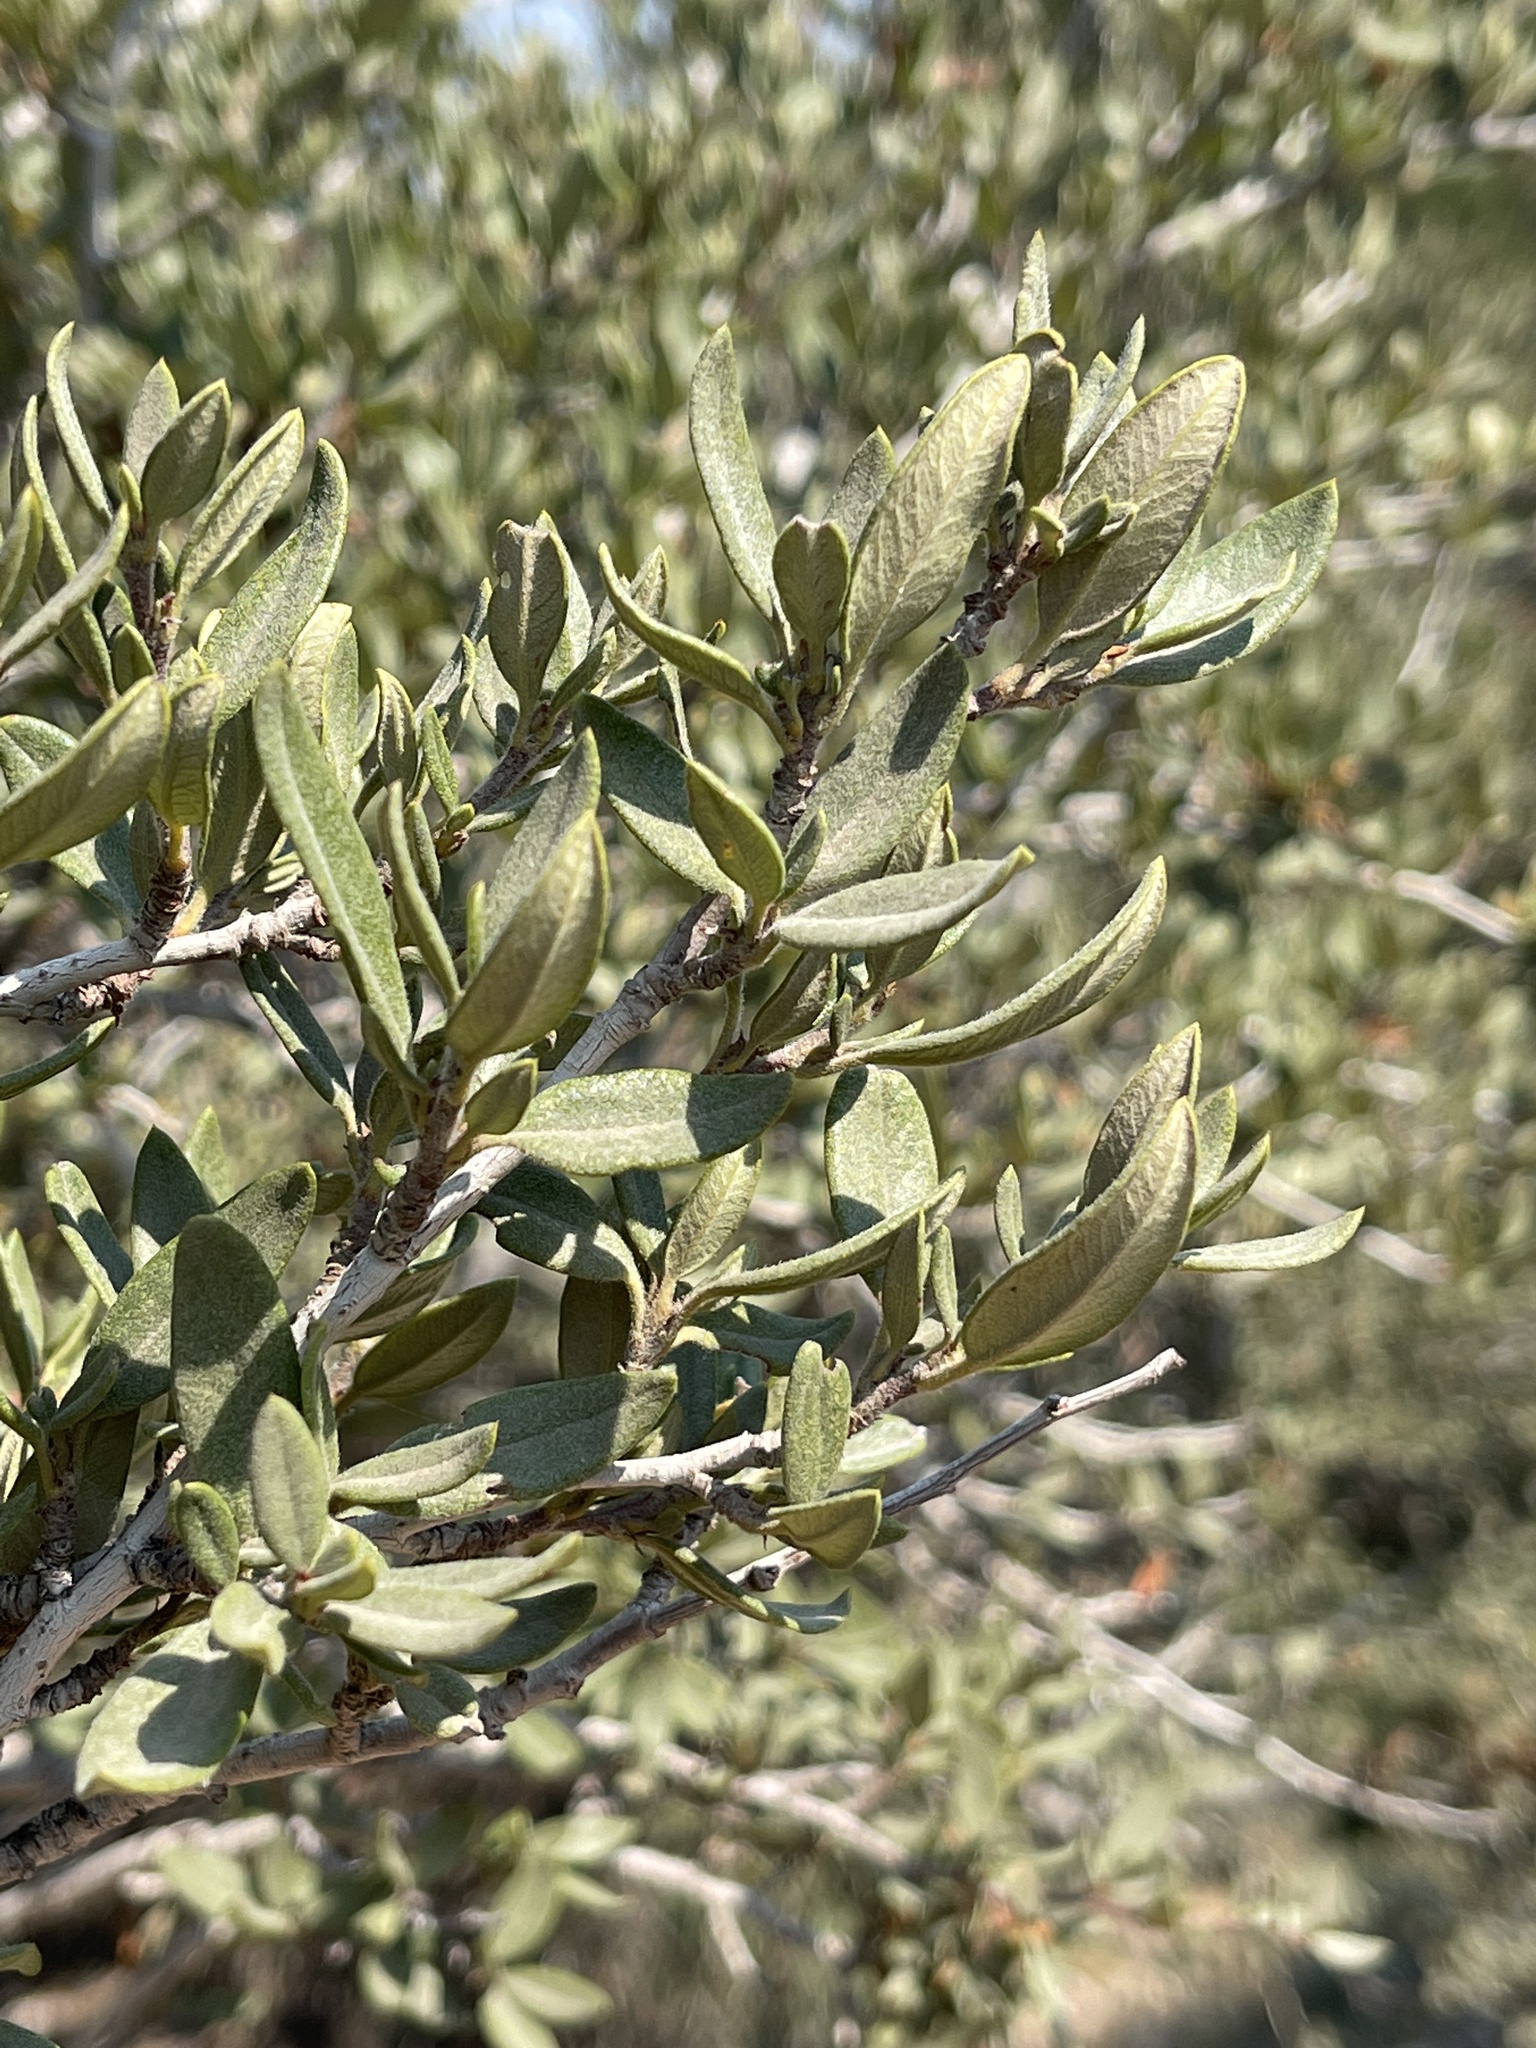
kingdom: Plantae
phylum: Tracheophyta
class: Magnoliopsida
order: Rosales
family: Rosaceae
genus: Cercocarpus
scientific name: Cercocarpus ledifolius
